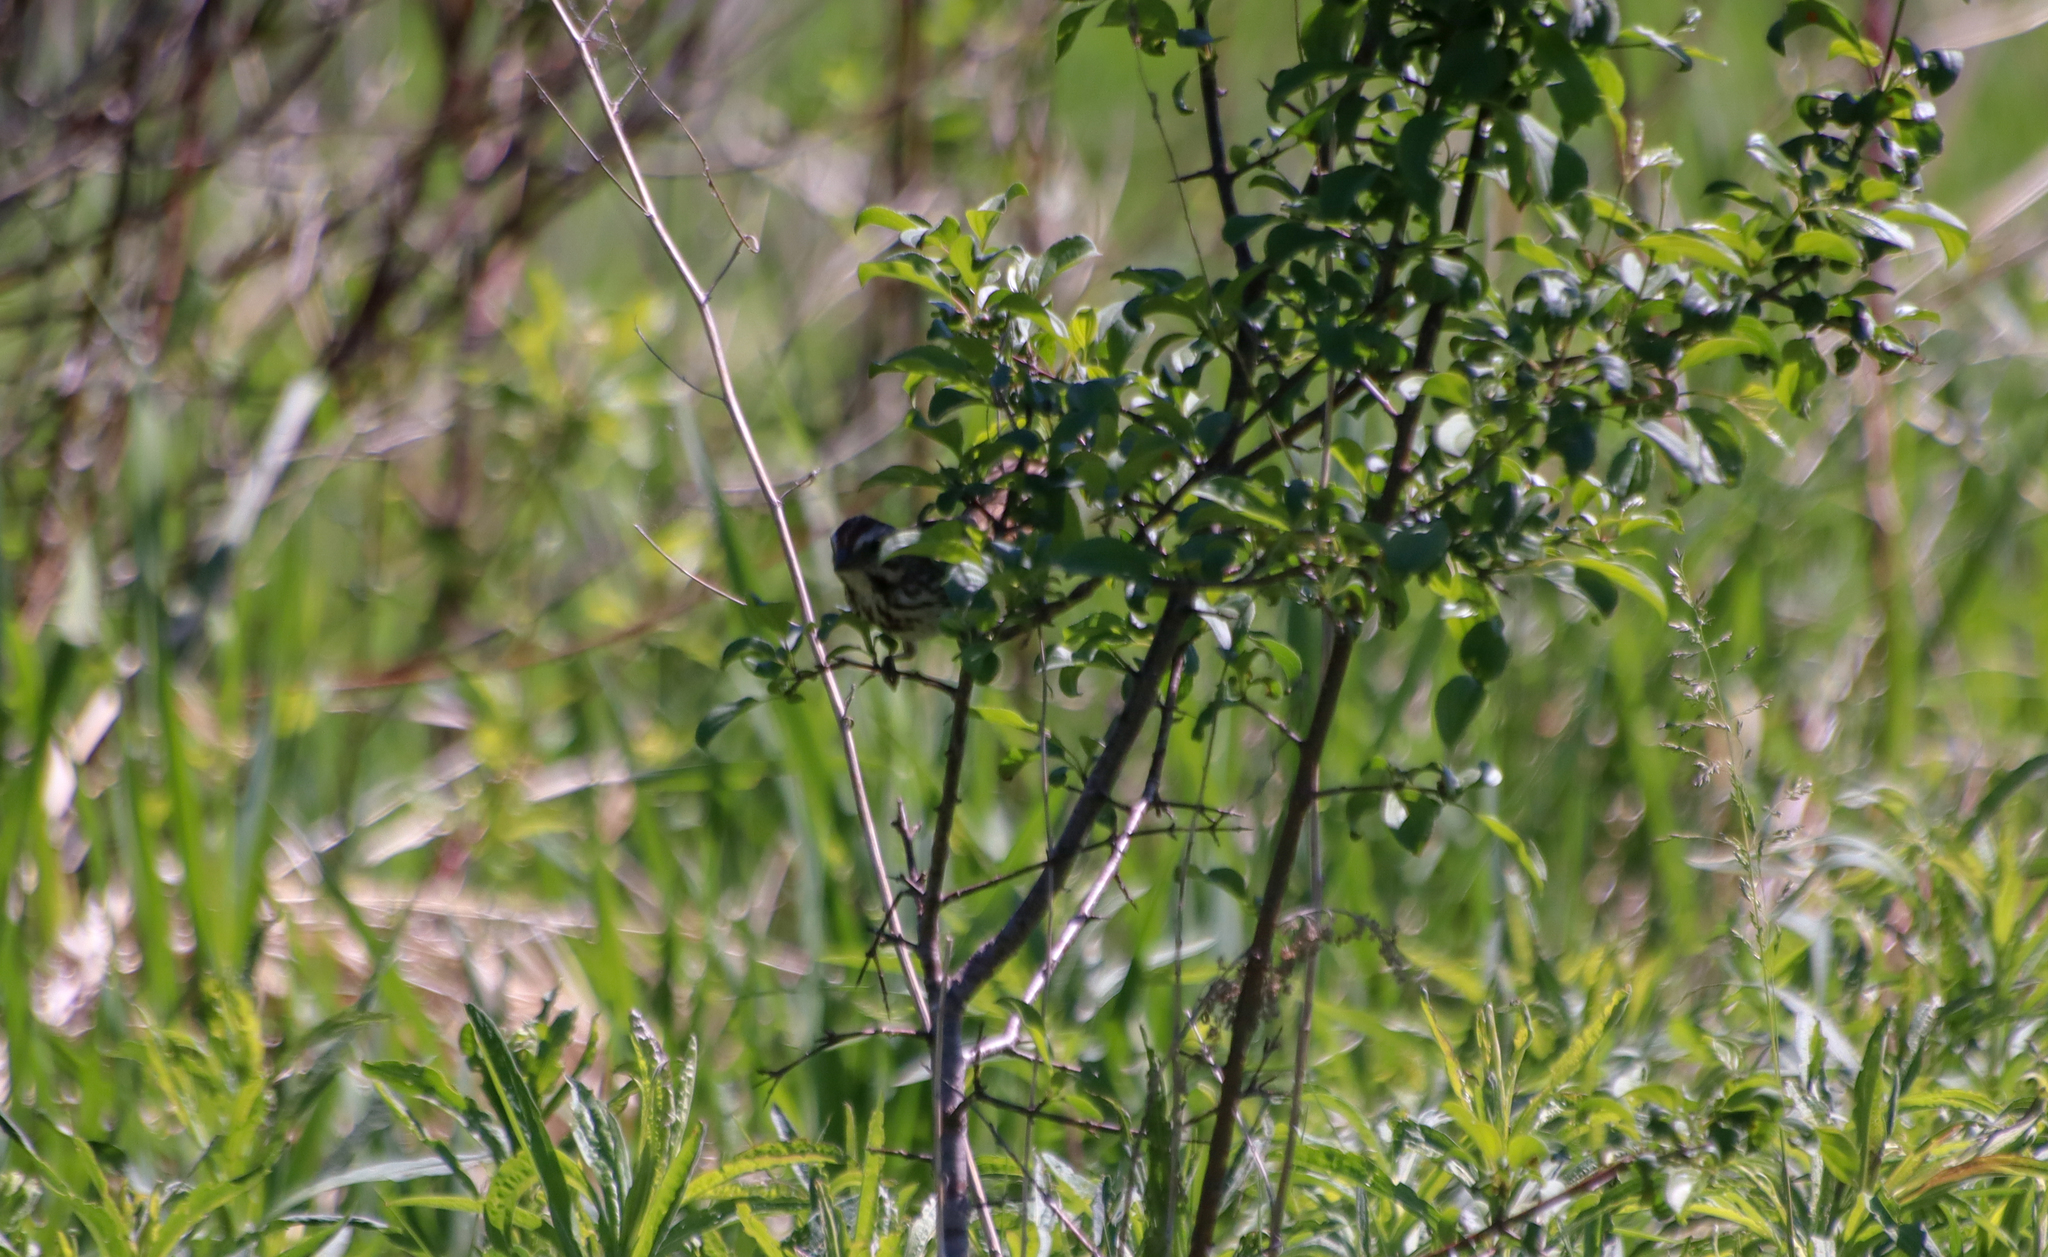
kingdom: Animalia
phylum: Chordata
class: Aves
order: Passeriformes
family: Passerellidae
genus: Melospiza
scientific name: Melospiza melodia
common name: Song sparrow
